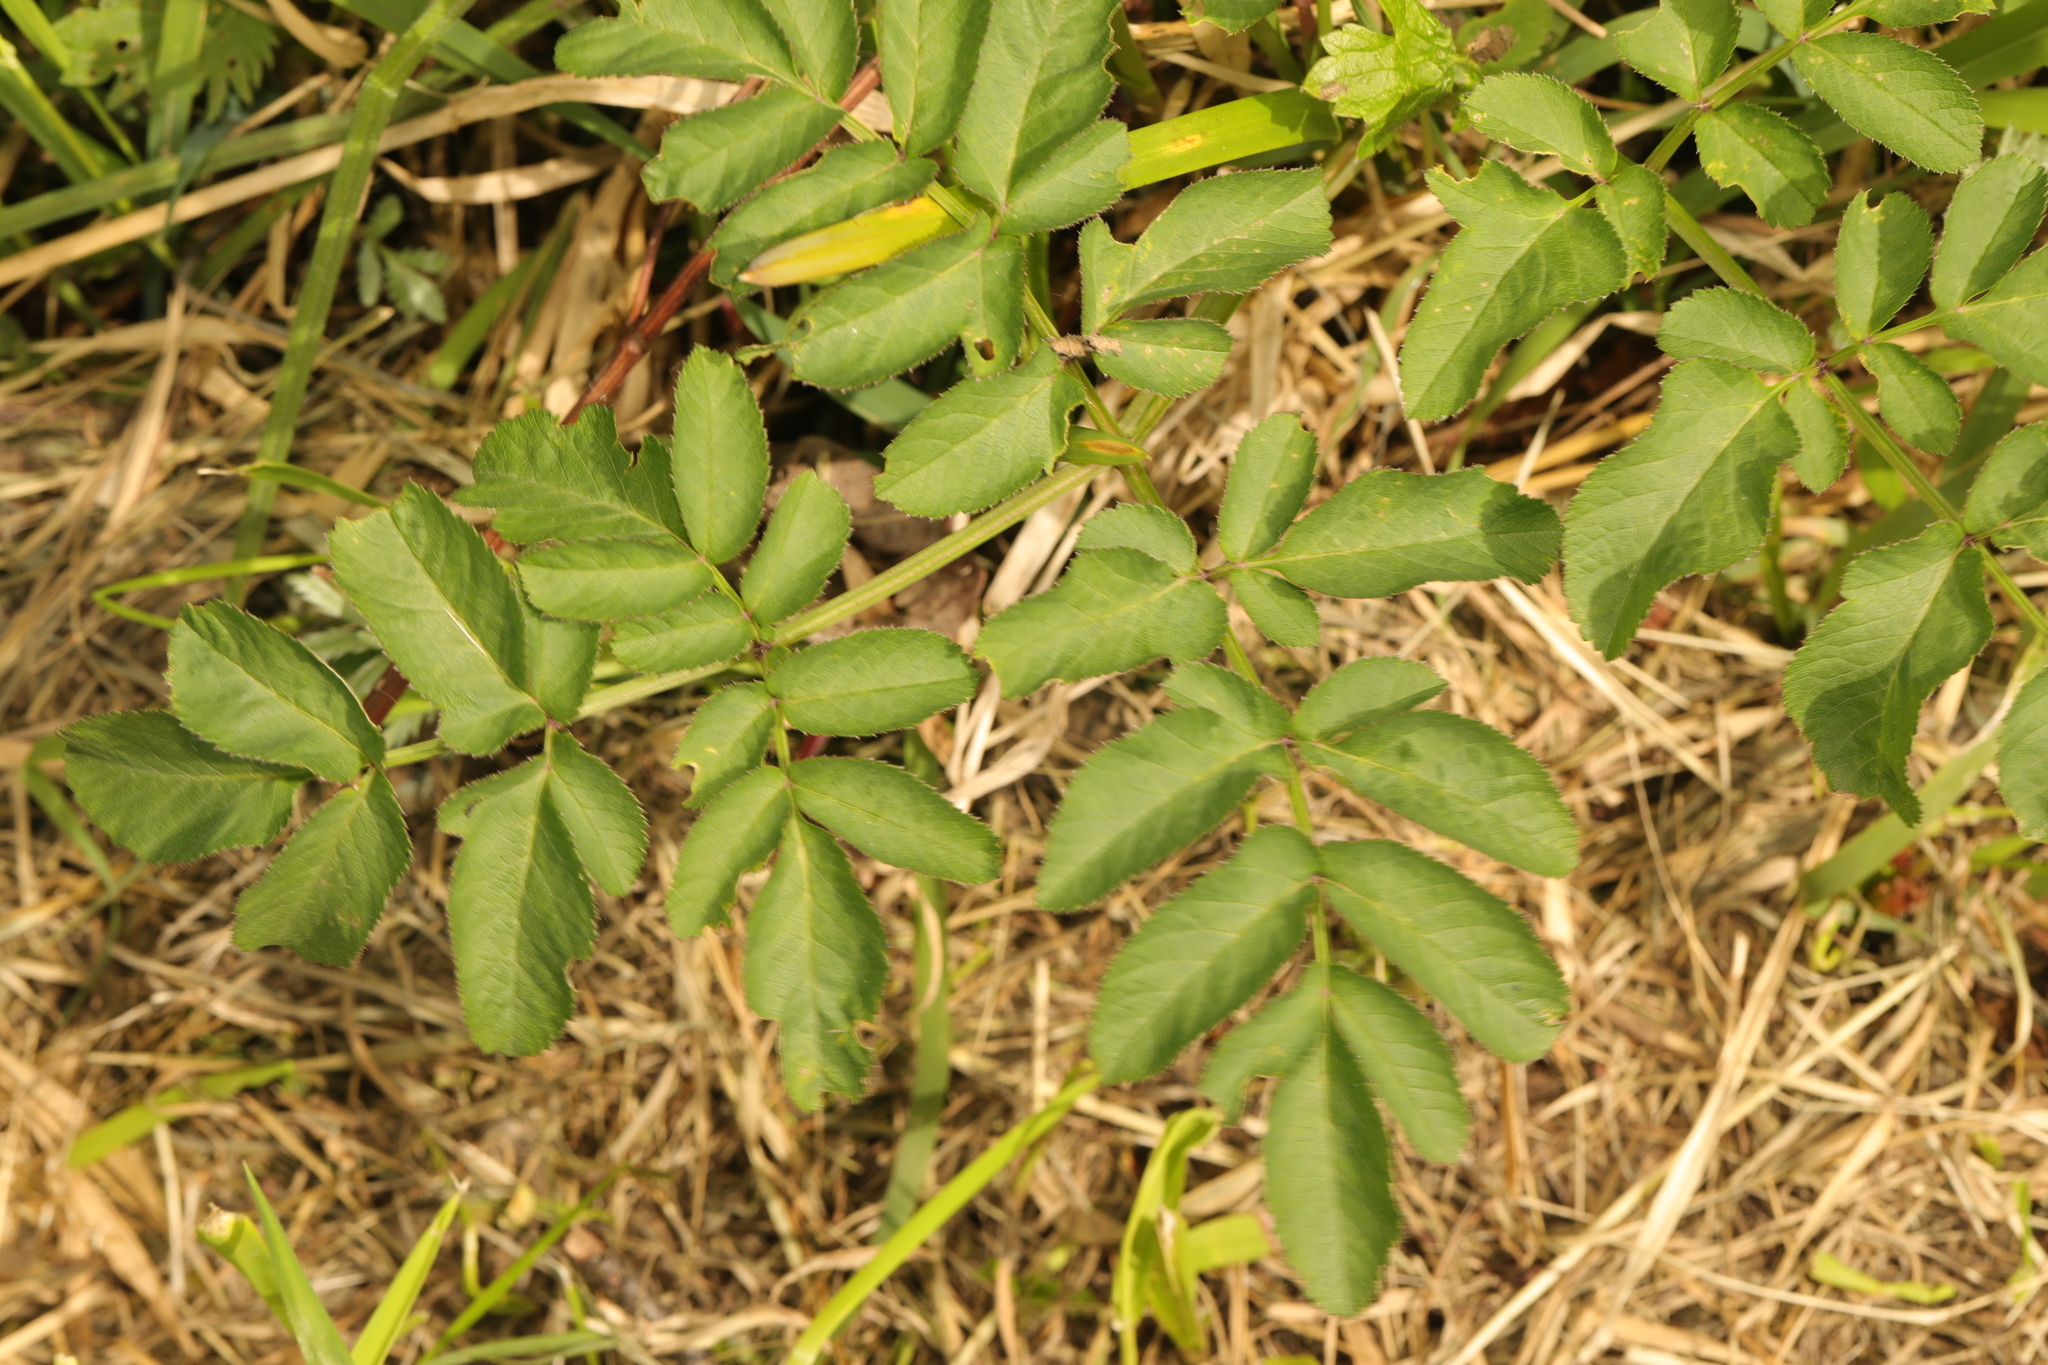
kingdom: Plantae
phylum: Tracheophyta
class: Magnoliopsida
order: Apiales
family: Apiaceae
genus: Angelica
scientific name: Angelica sylvestris
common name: Wild angelica
